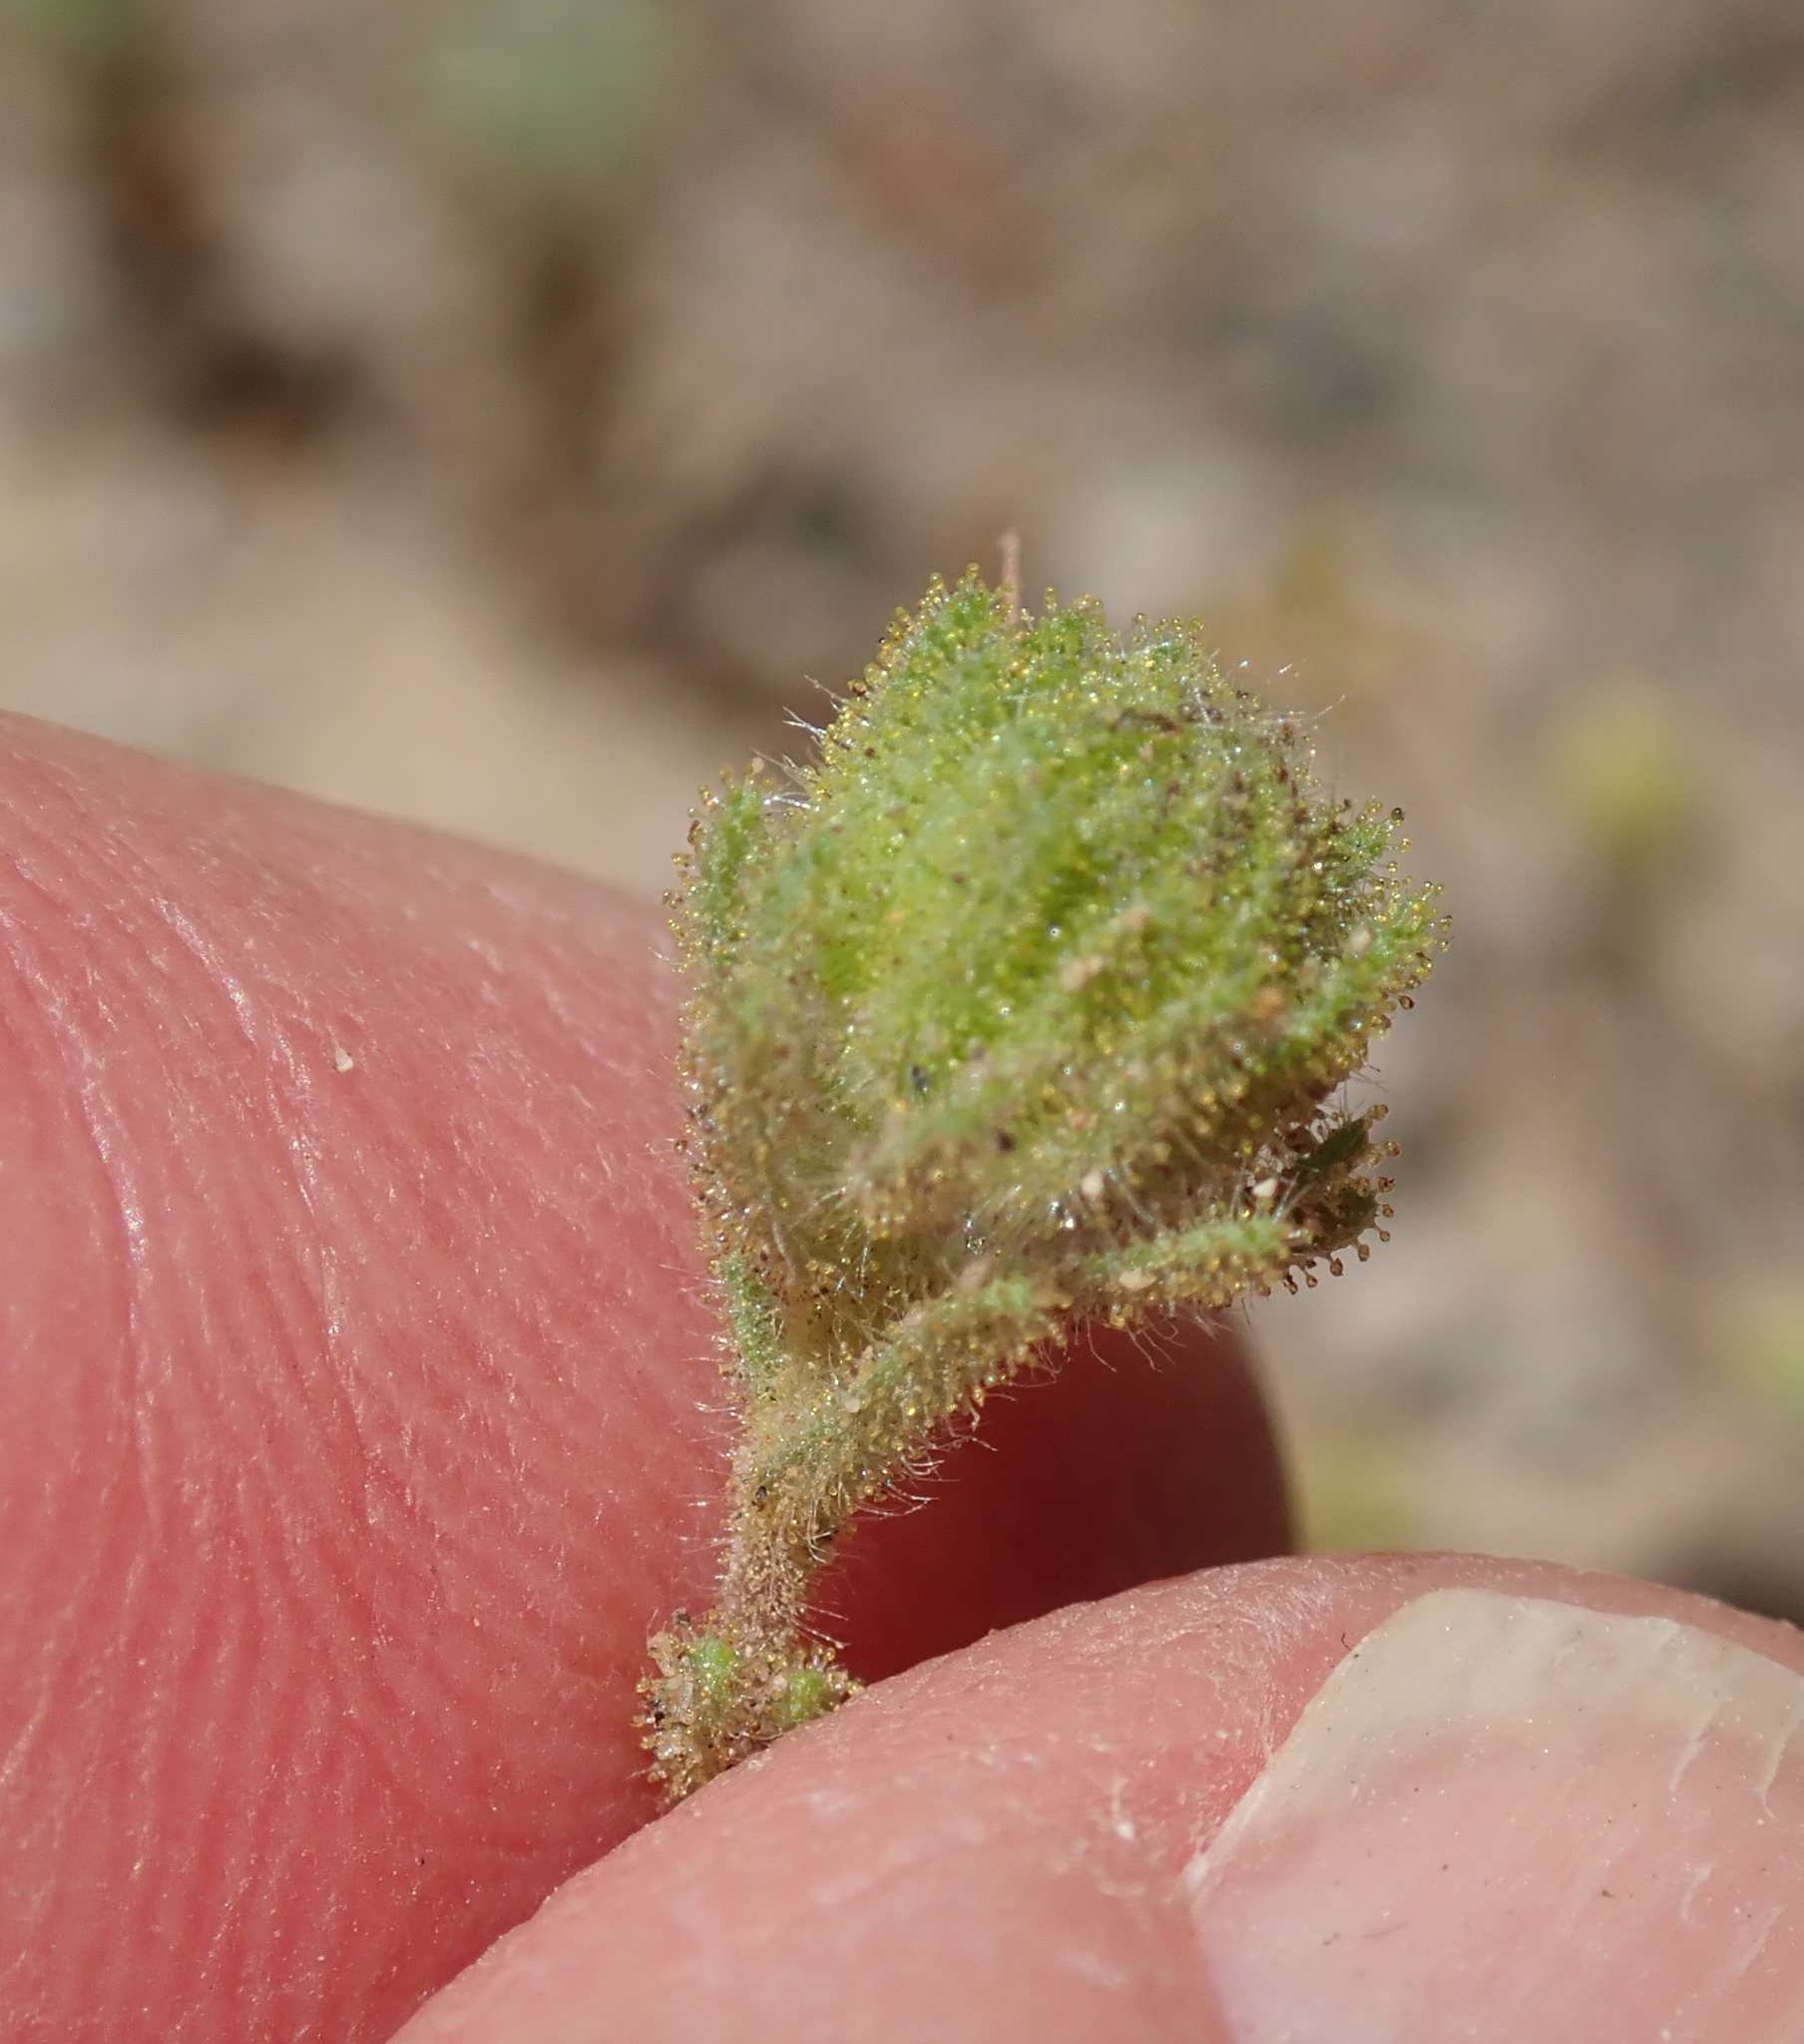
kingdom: Plantae
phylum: Tracheophyta
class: Magnoliopsida
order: Asterales
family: Asteraceae
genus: Deinandra
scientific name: Deinandra corymbosa
